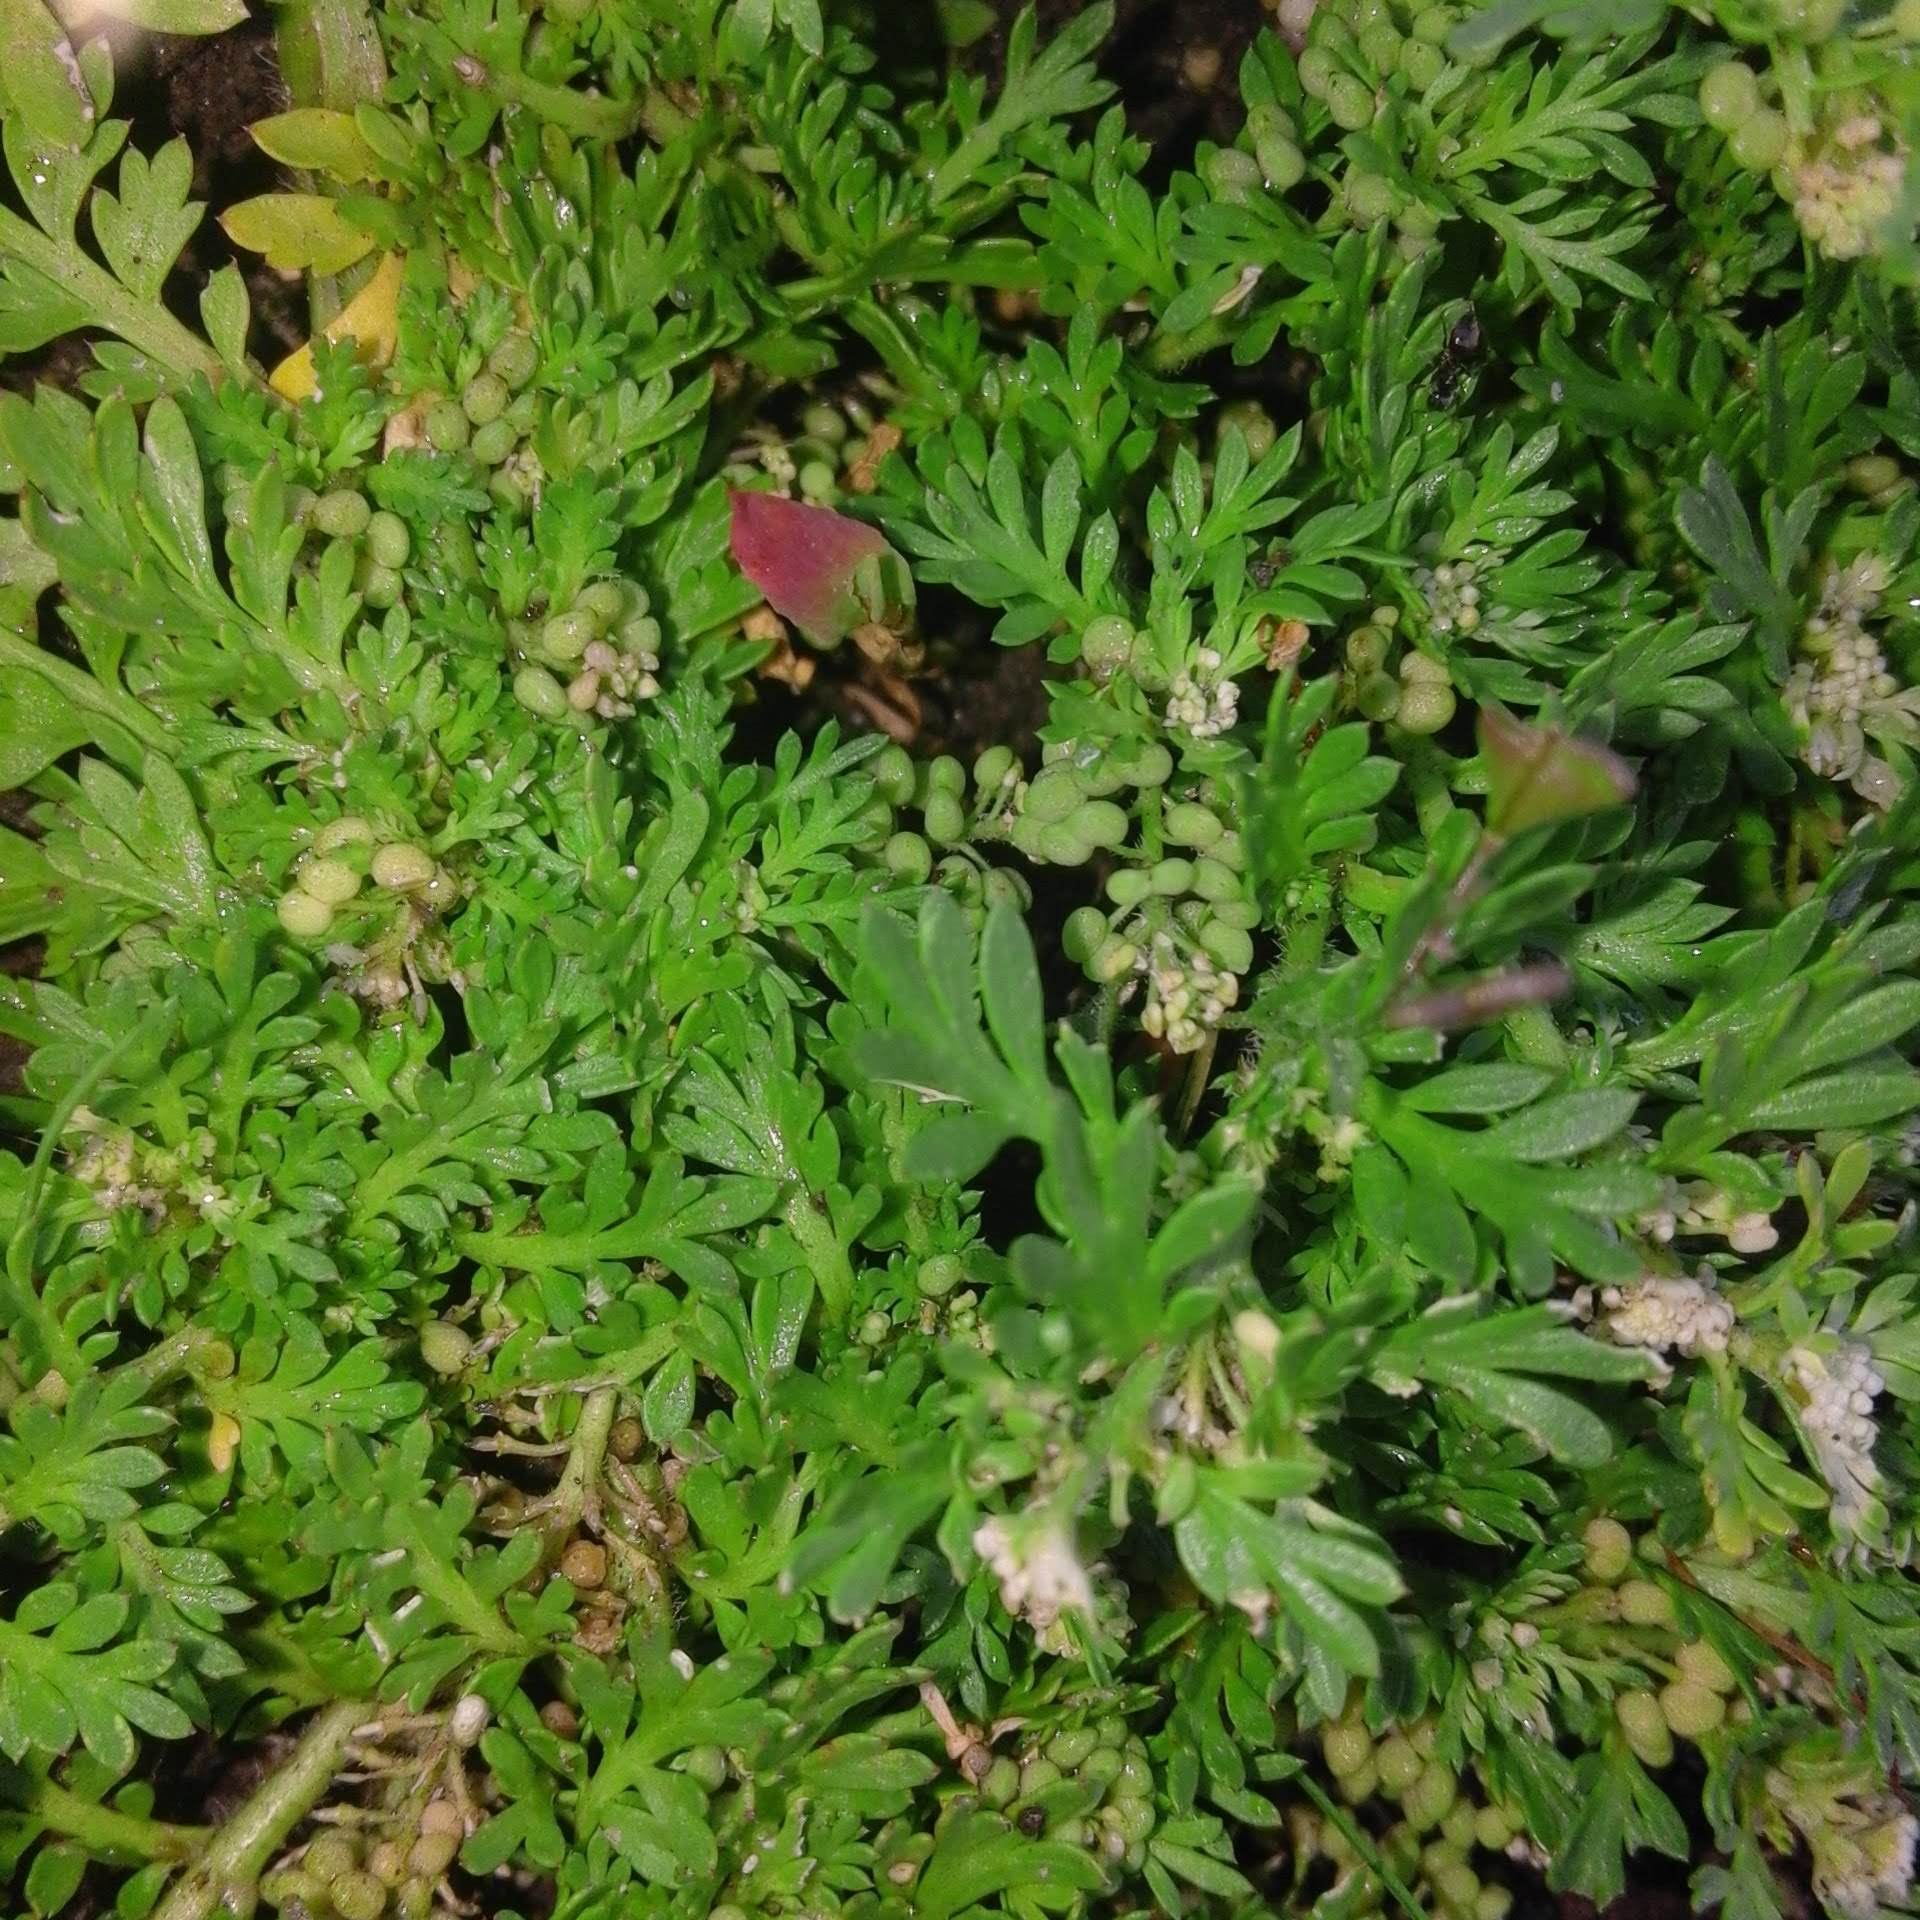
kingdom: Plantae
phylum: Tracheophyta
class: Magnoliopsida
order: Brassicales
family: Brassicaceae
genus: Lepidium
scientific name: Lepidium didymum
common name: Lesser swinecress
